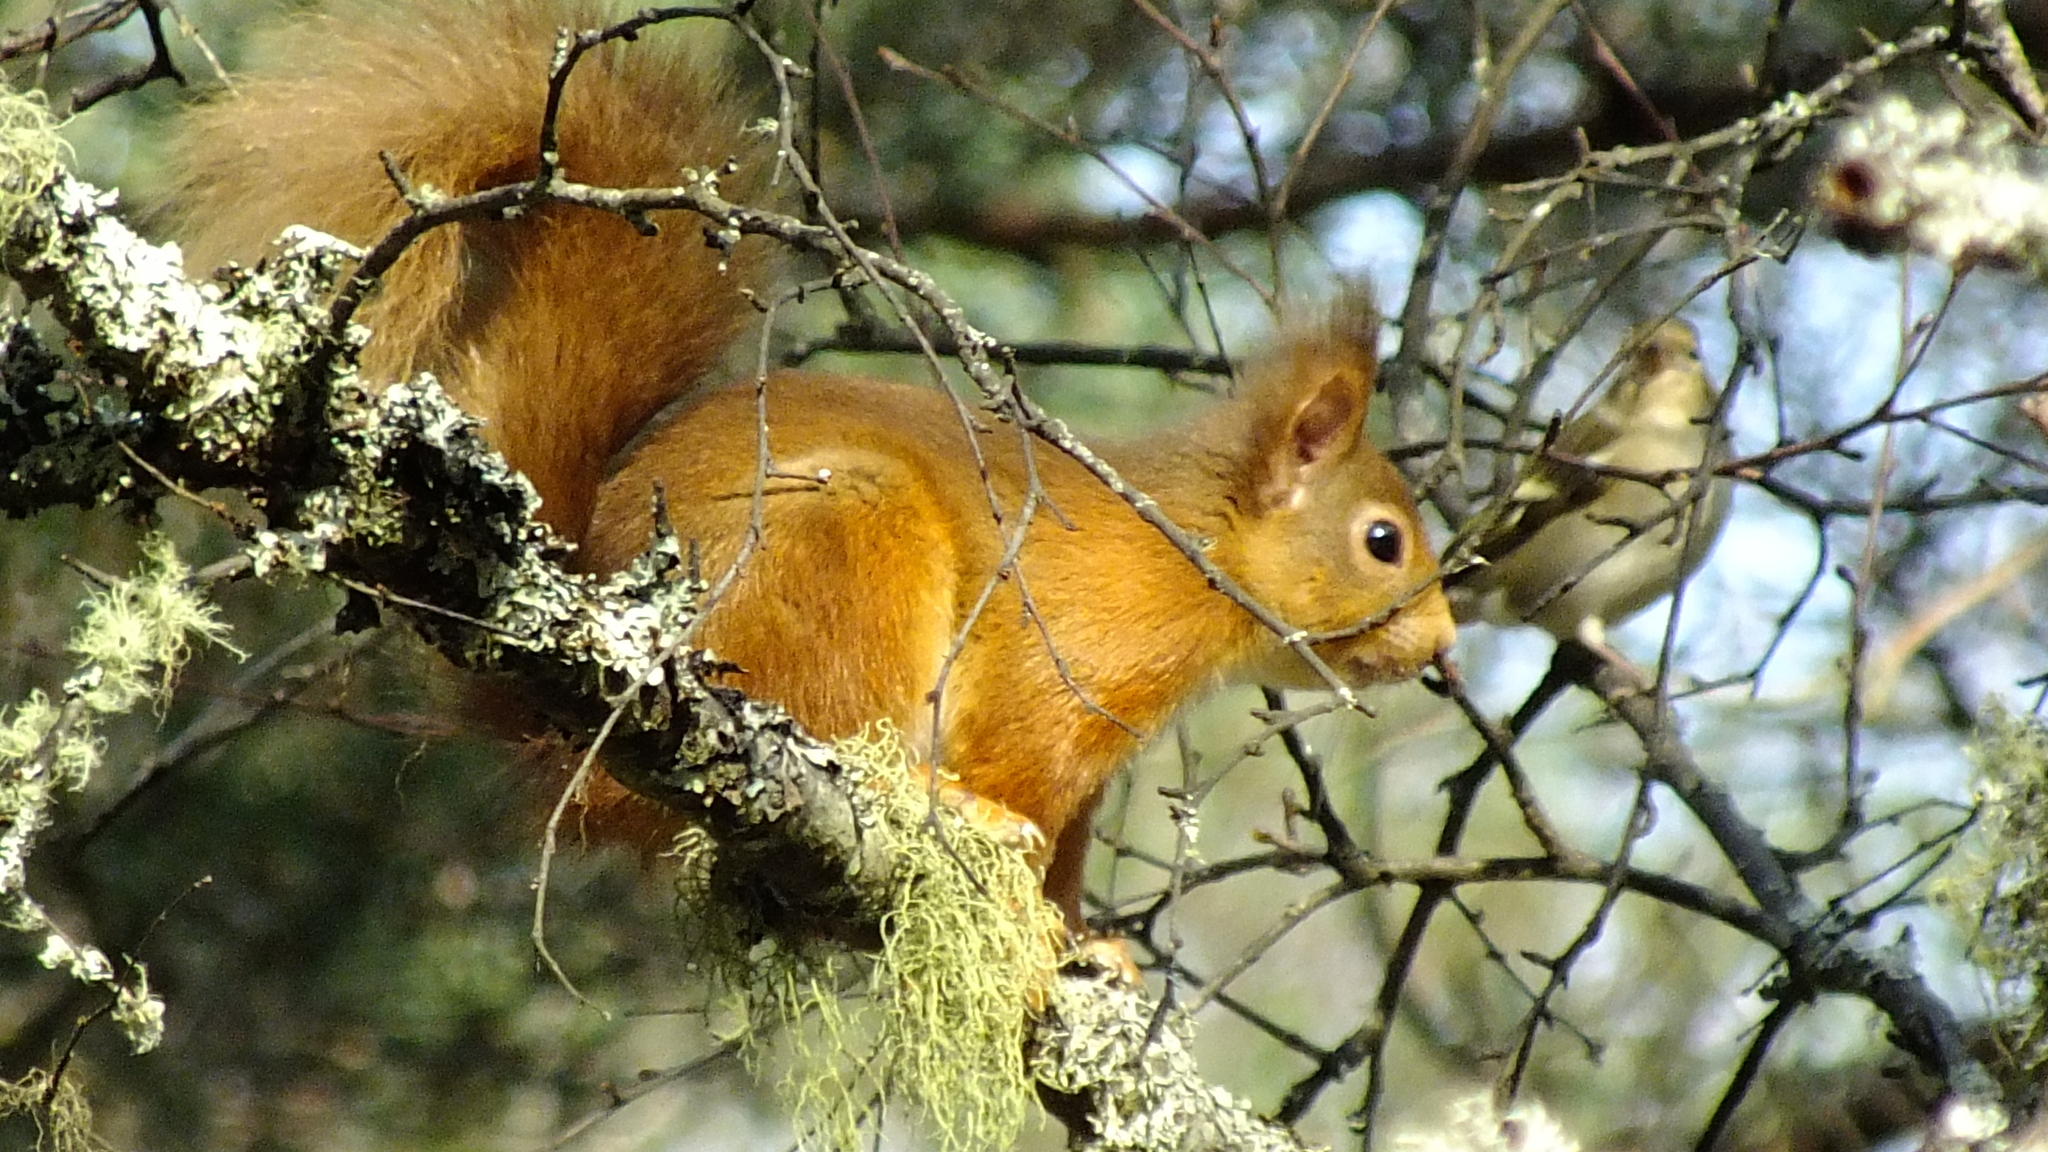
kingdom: Animalia
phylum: Chordata
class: Mammalia
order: Rodentia
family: Sciuridae
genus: Sciurus
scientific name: Sciurus vulgaris
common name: Eurasian red squirrel
